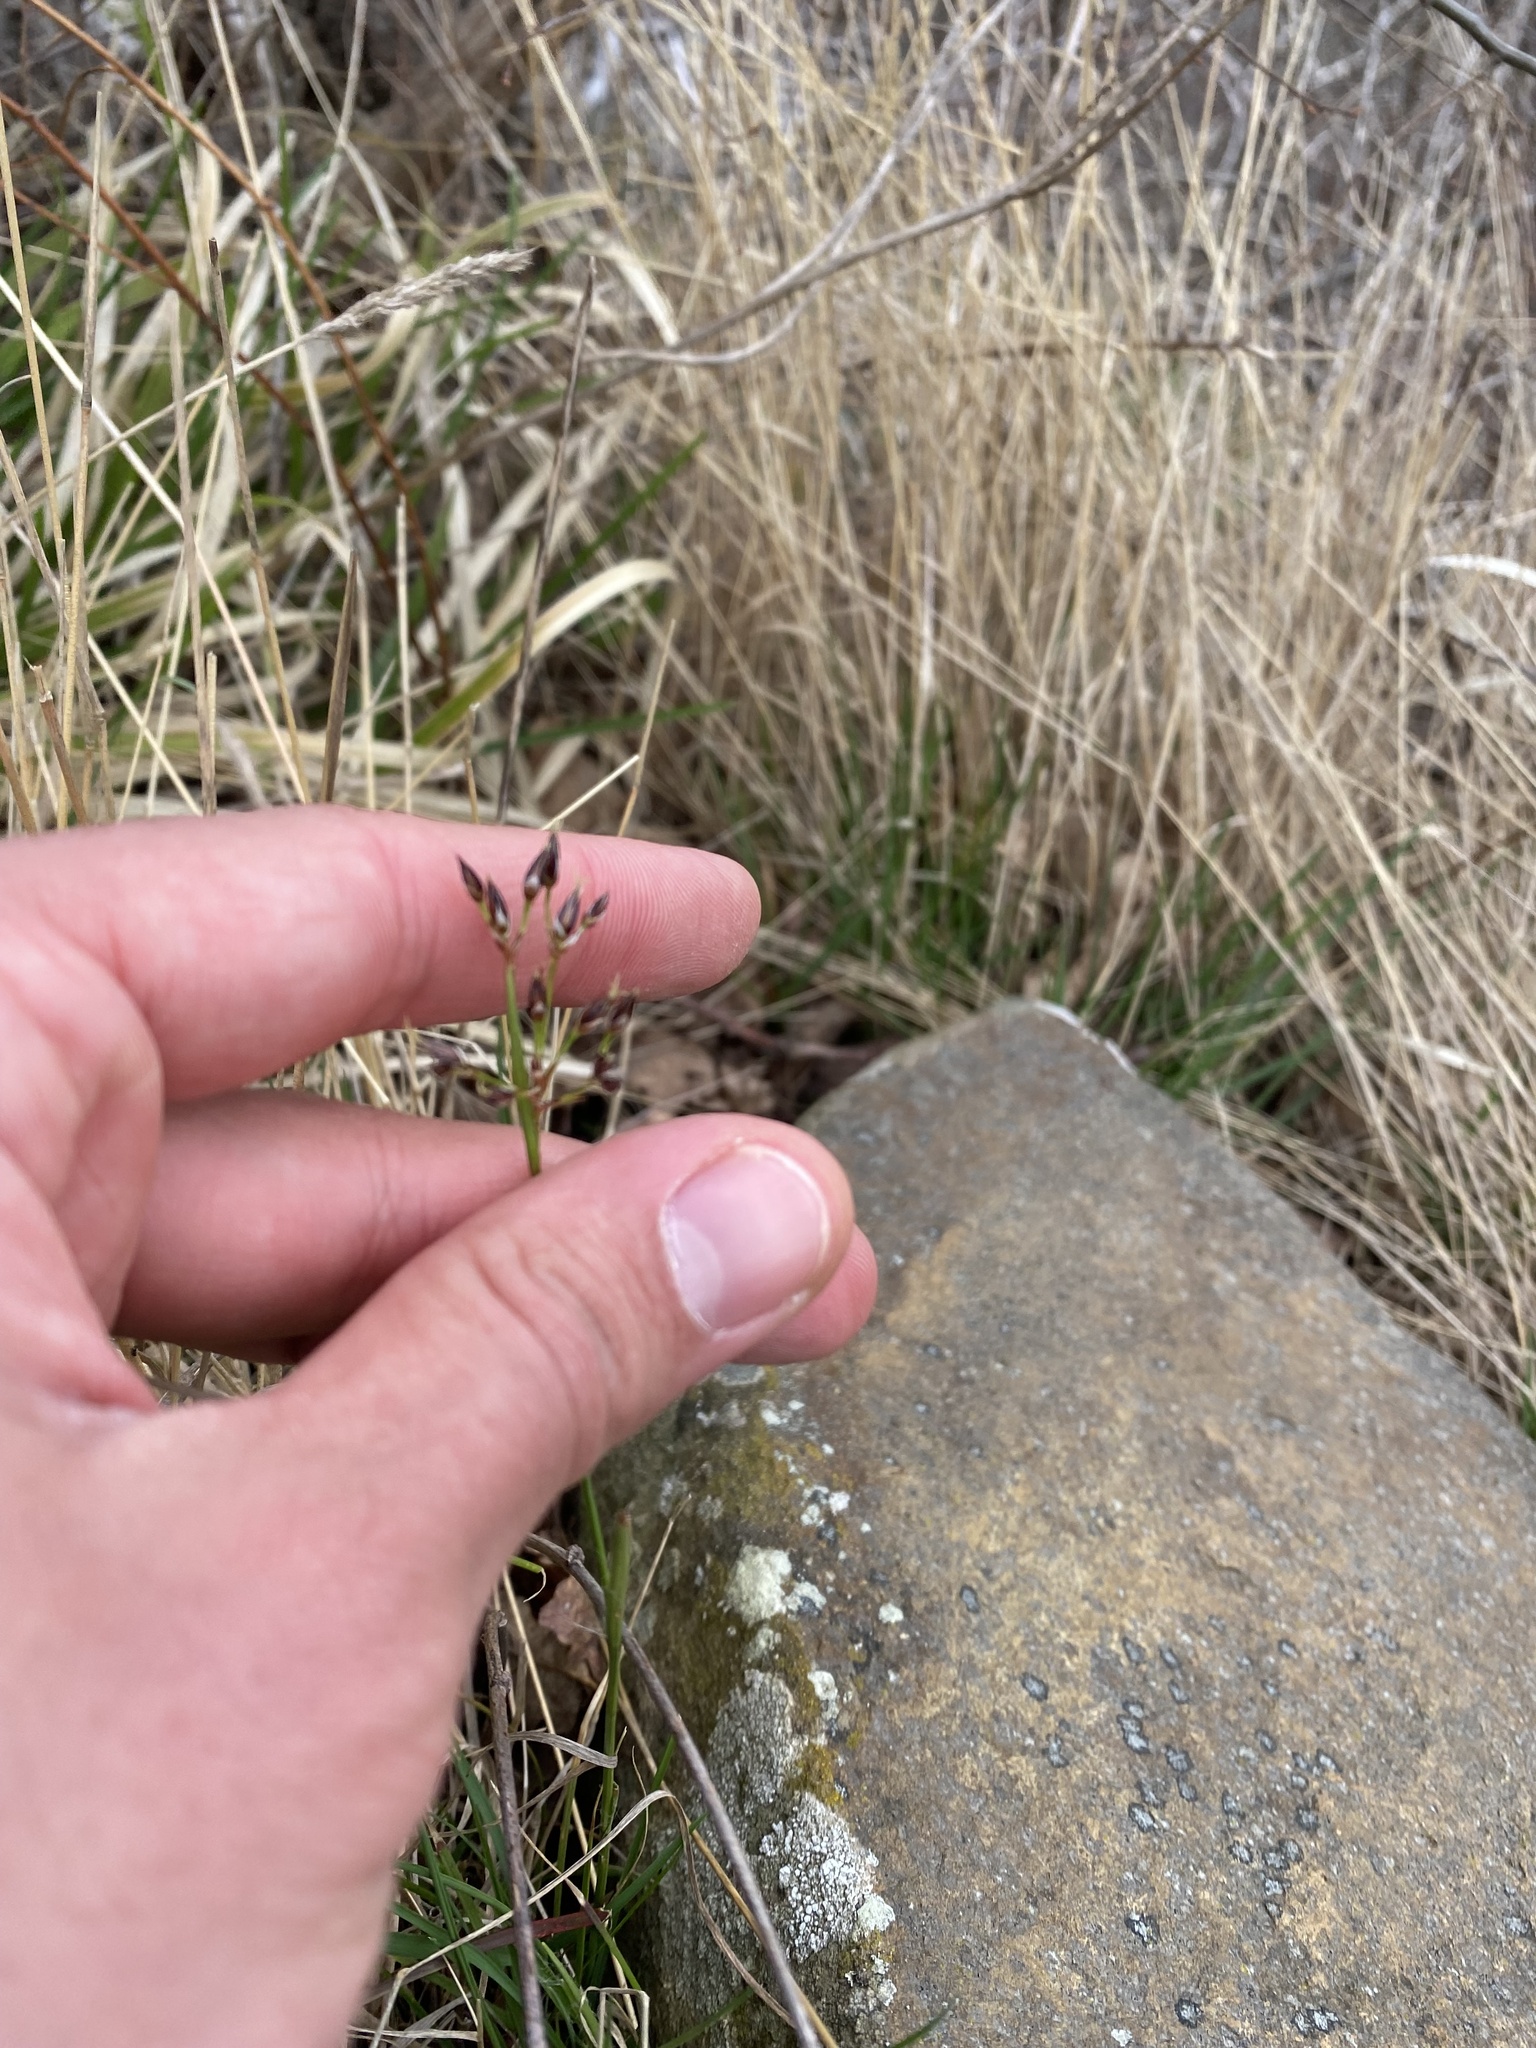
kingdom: Plantae
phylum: Tracheophyta
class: Liliopsida
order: Poales
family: Juncaceae
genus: Luzula
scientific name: Luzula forsteri
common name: Southern wood-rush
